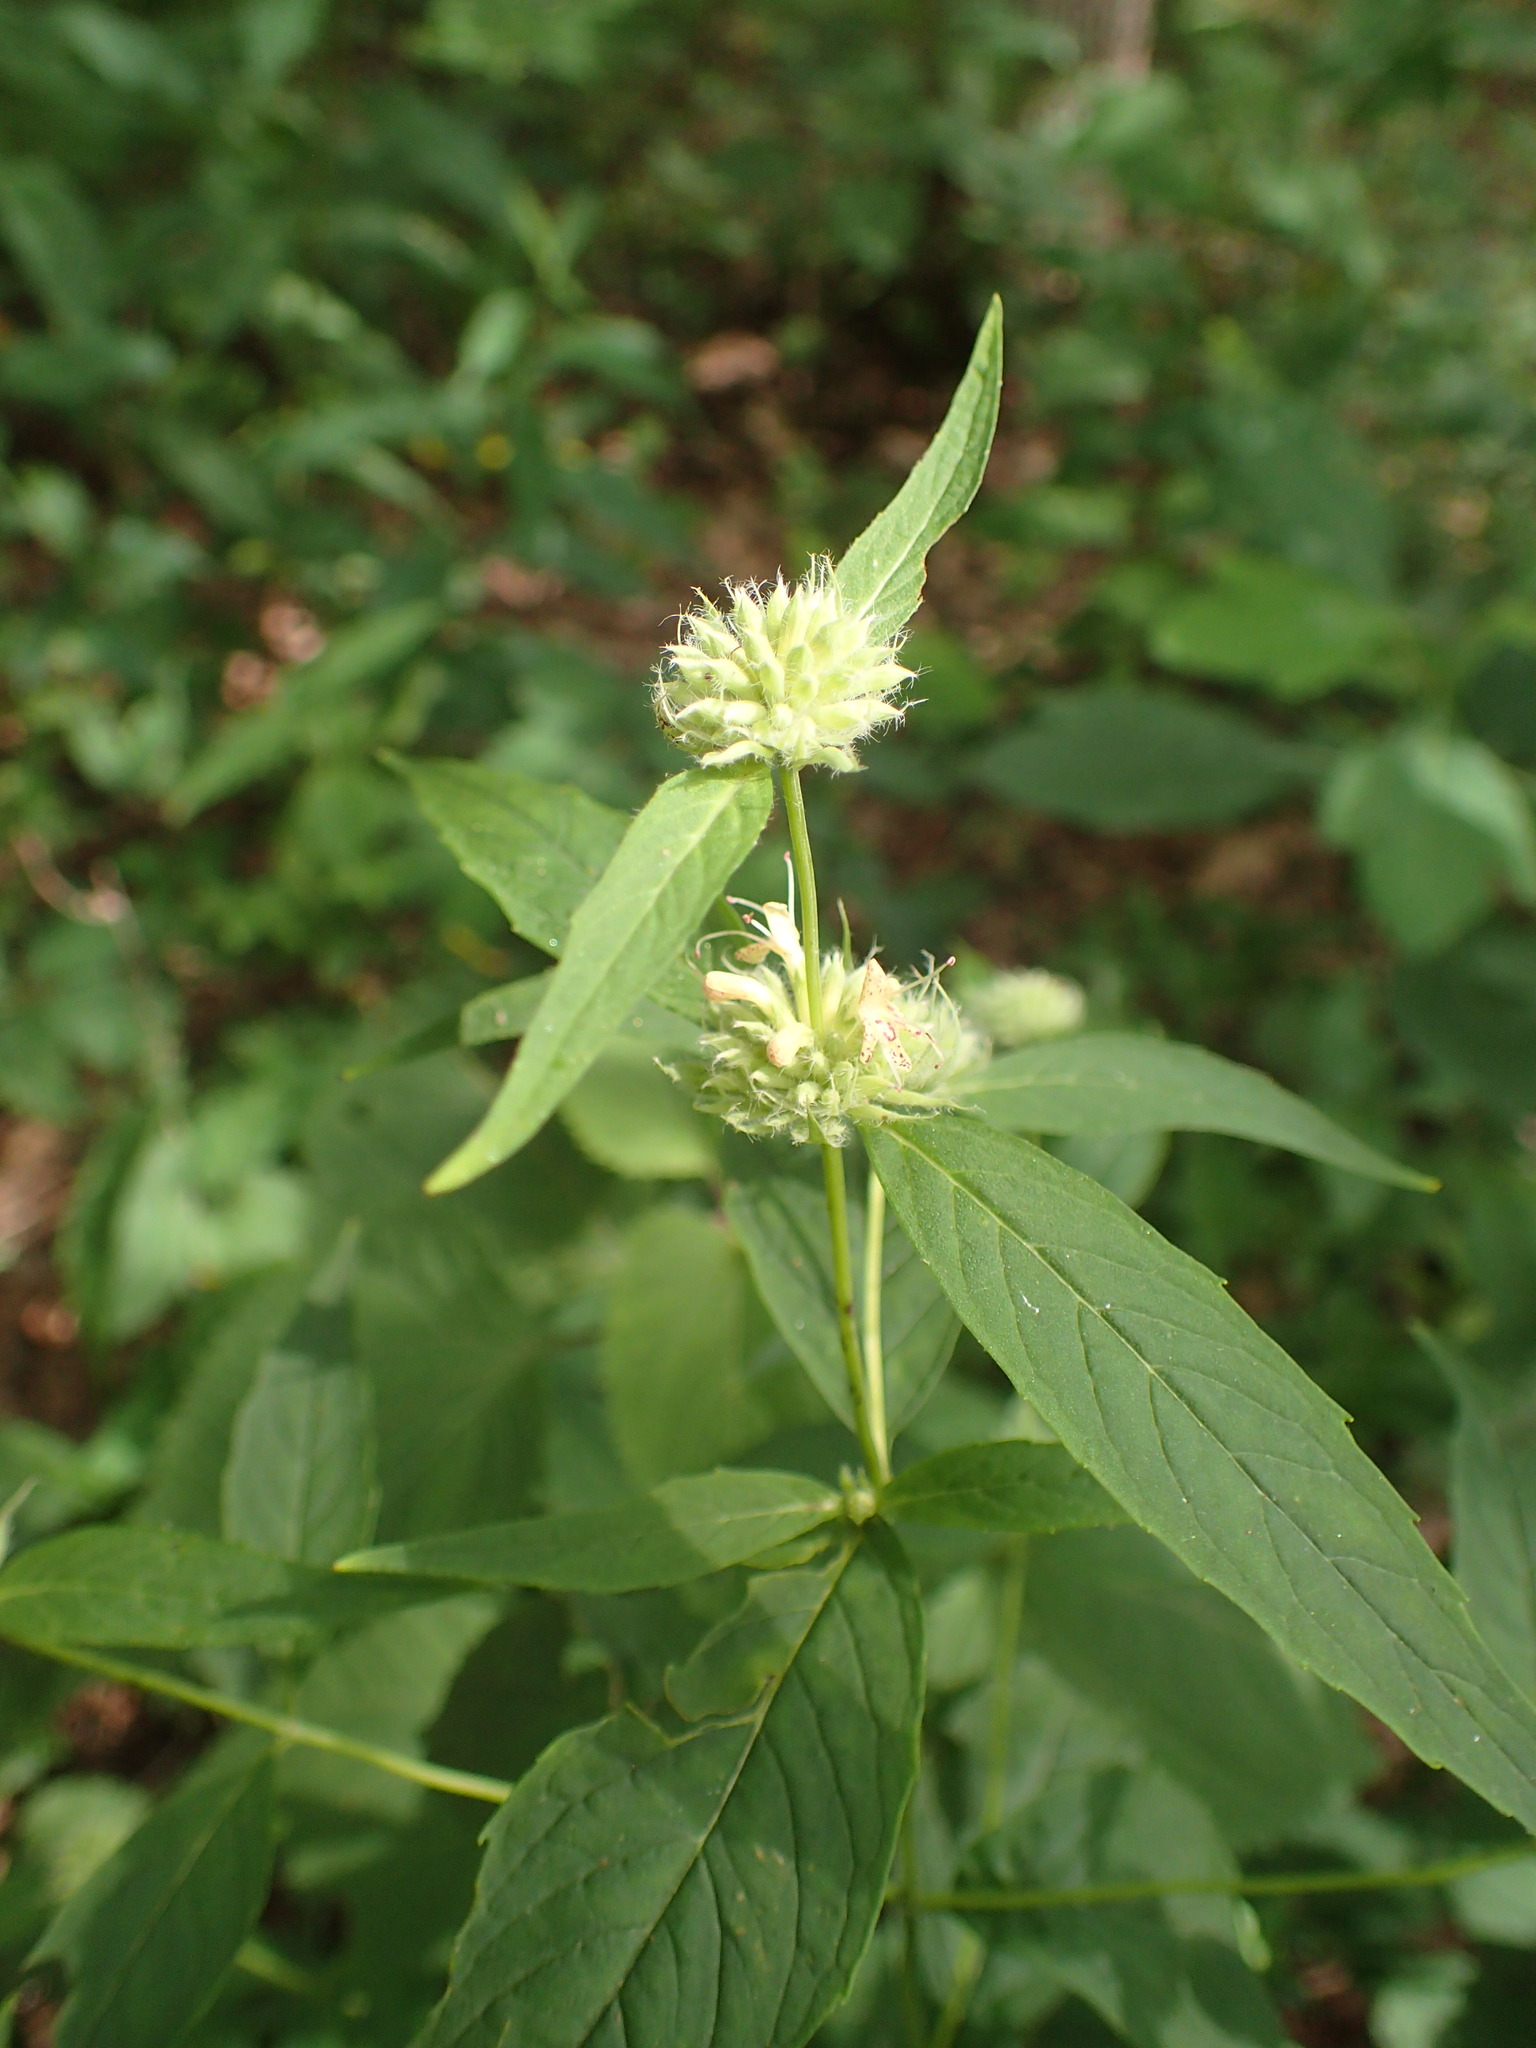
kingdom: Plantae
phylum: Tracheophyta
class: Magnoliopsida
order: Lamiales
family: Lamiaceae
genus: Pycnanthemum
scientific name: Pycnanthemum montanum
